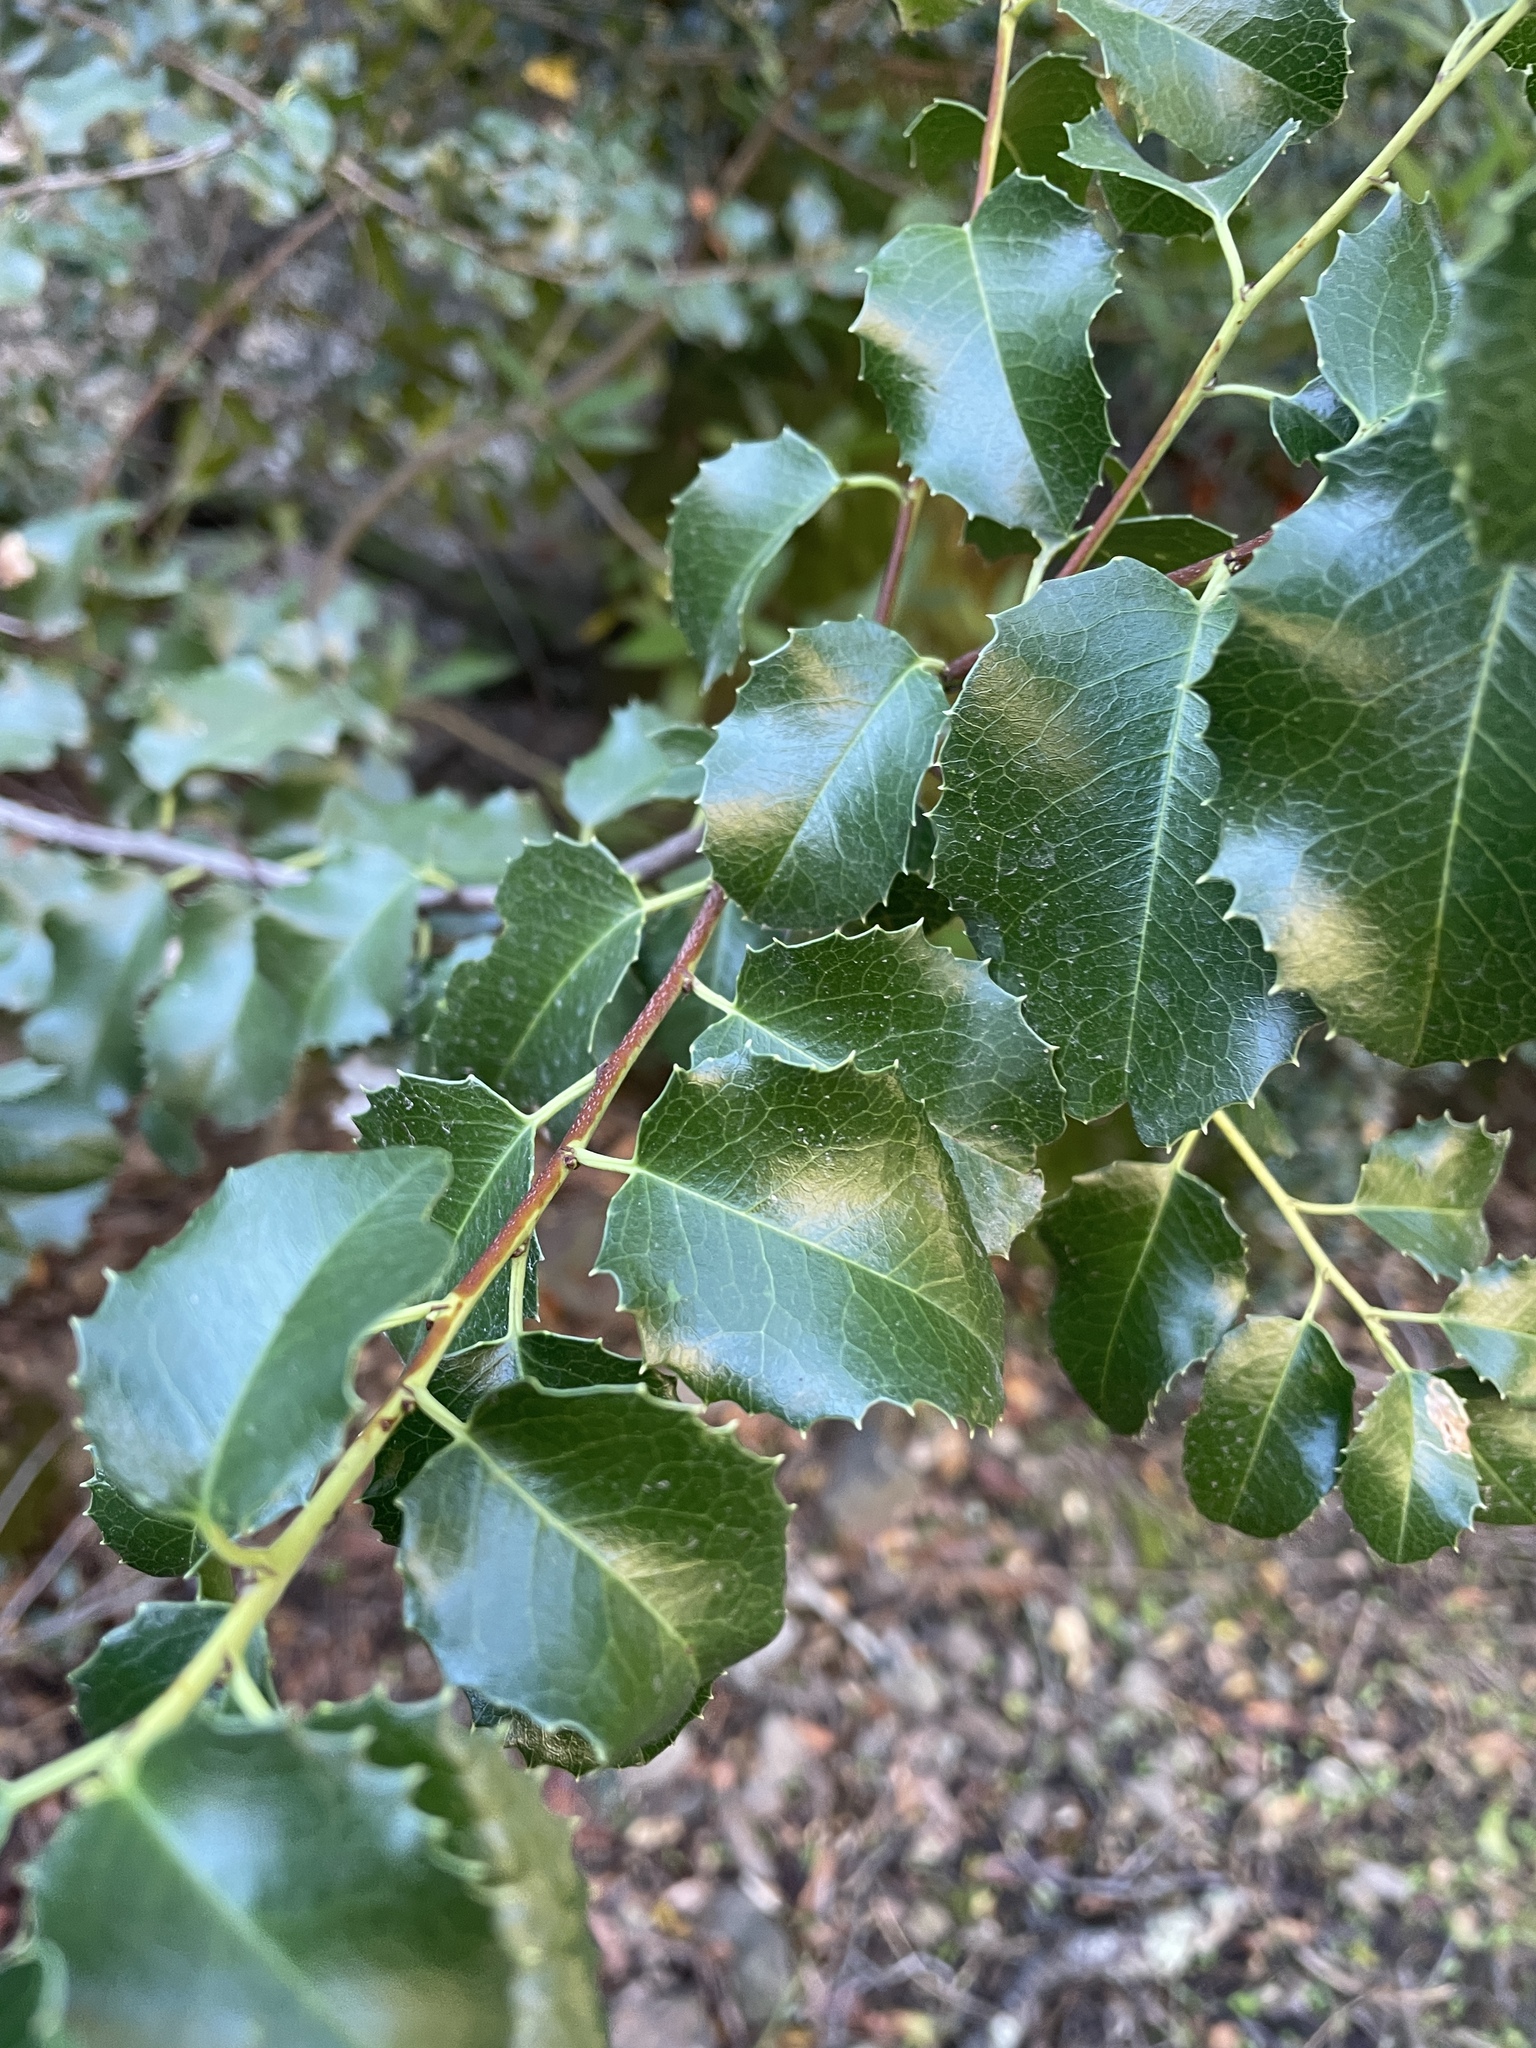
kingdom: Plantae
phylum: Tracheophyta
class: Magnoliopsida
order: Rosales
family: Rosaceae
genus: Prunus
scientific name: Prunus ilicifolia
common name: Hollyleaf cherry
